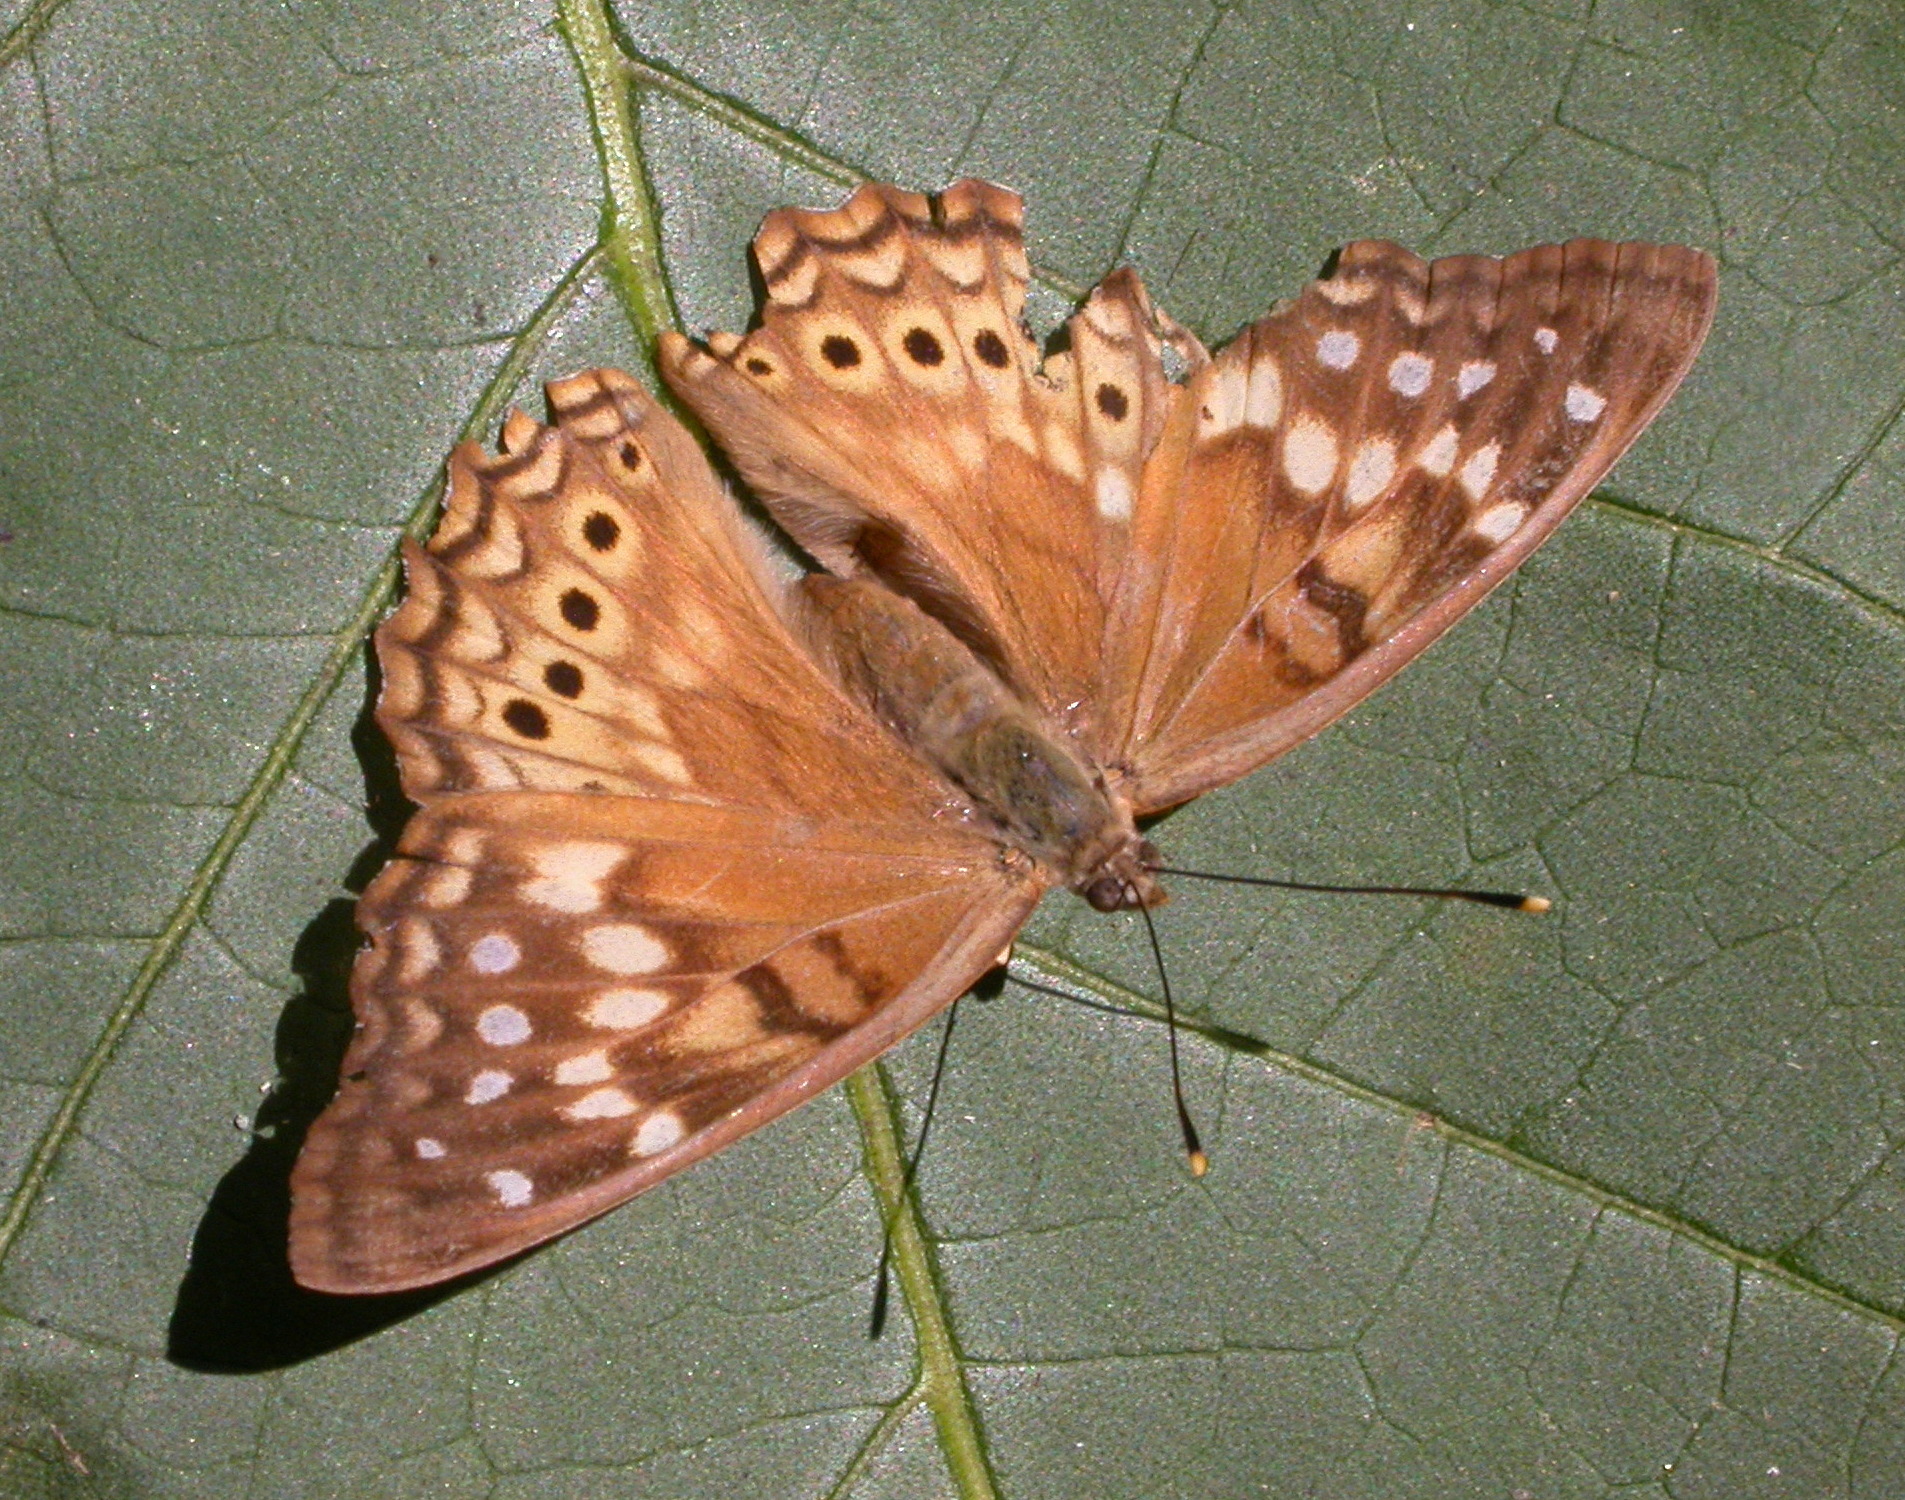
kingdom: Animalia
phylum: Arthropoda
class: Insecta
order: Lepidoptera
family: Nymphalidae
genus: Asterocampa
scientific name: Asterocampa clyton
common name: Tawny emperor
